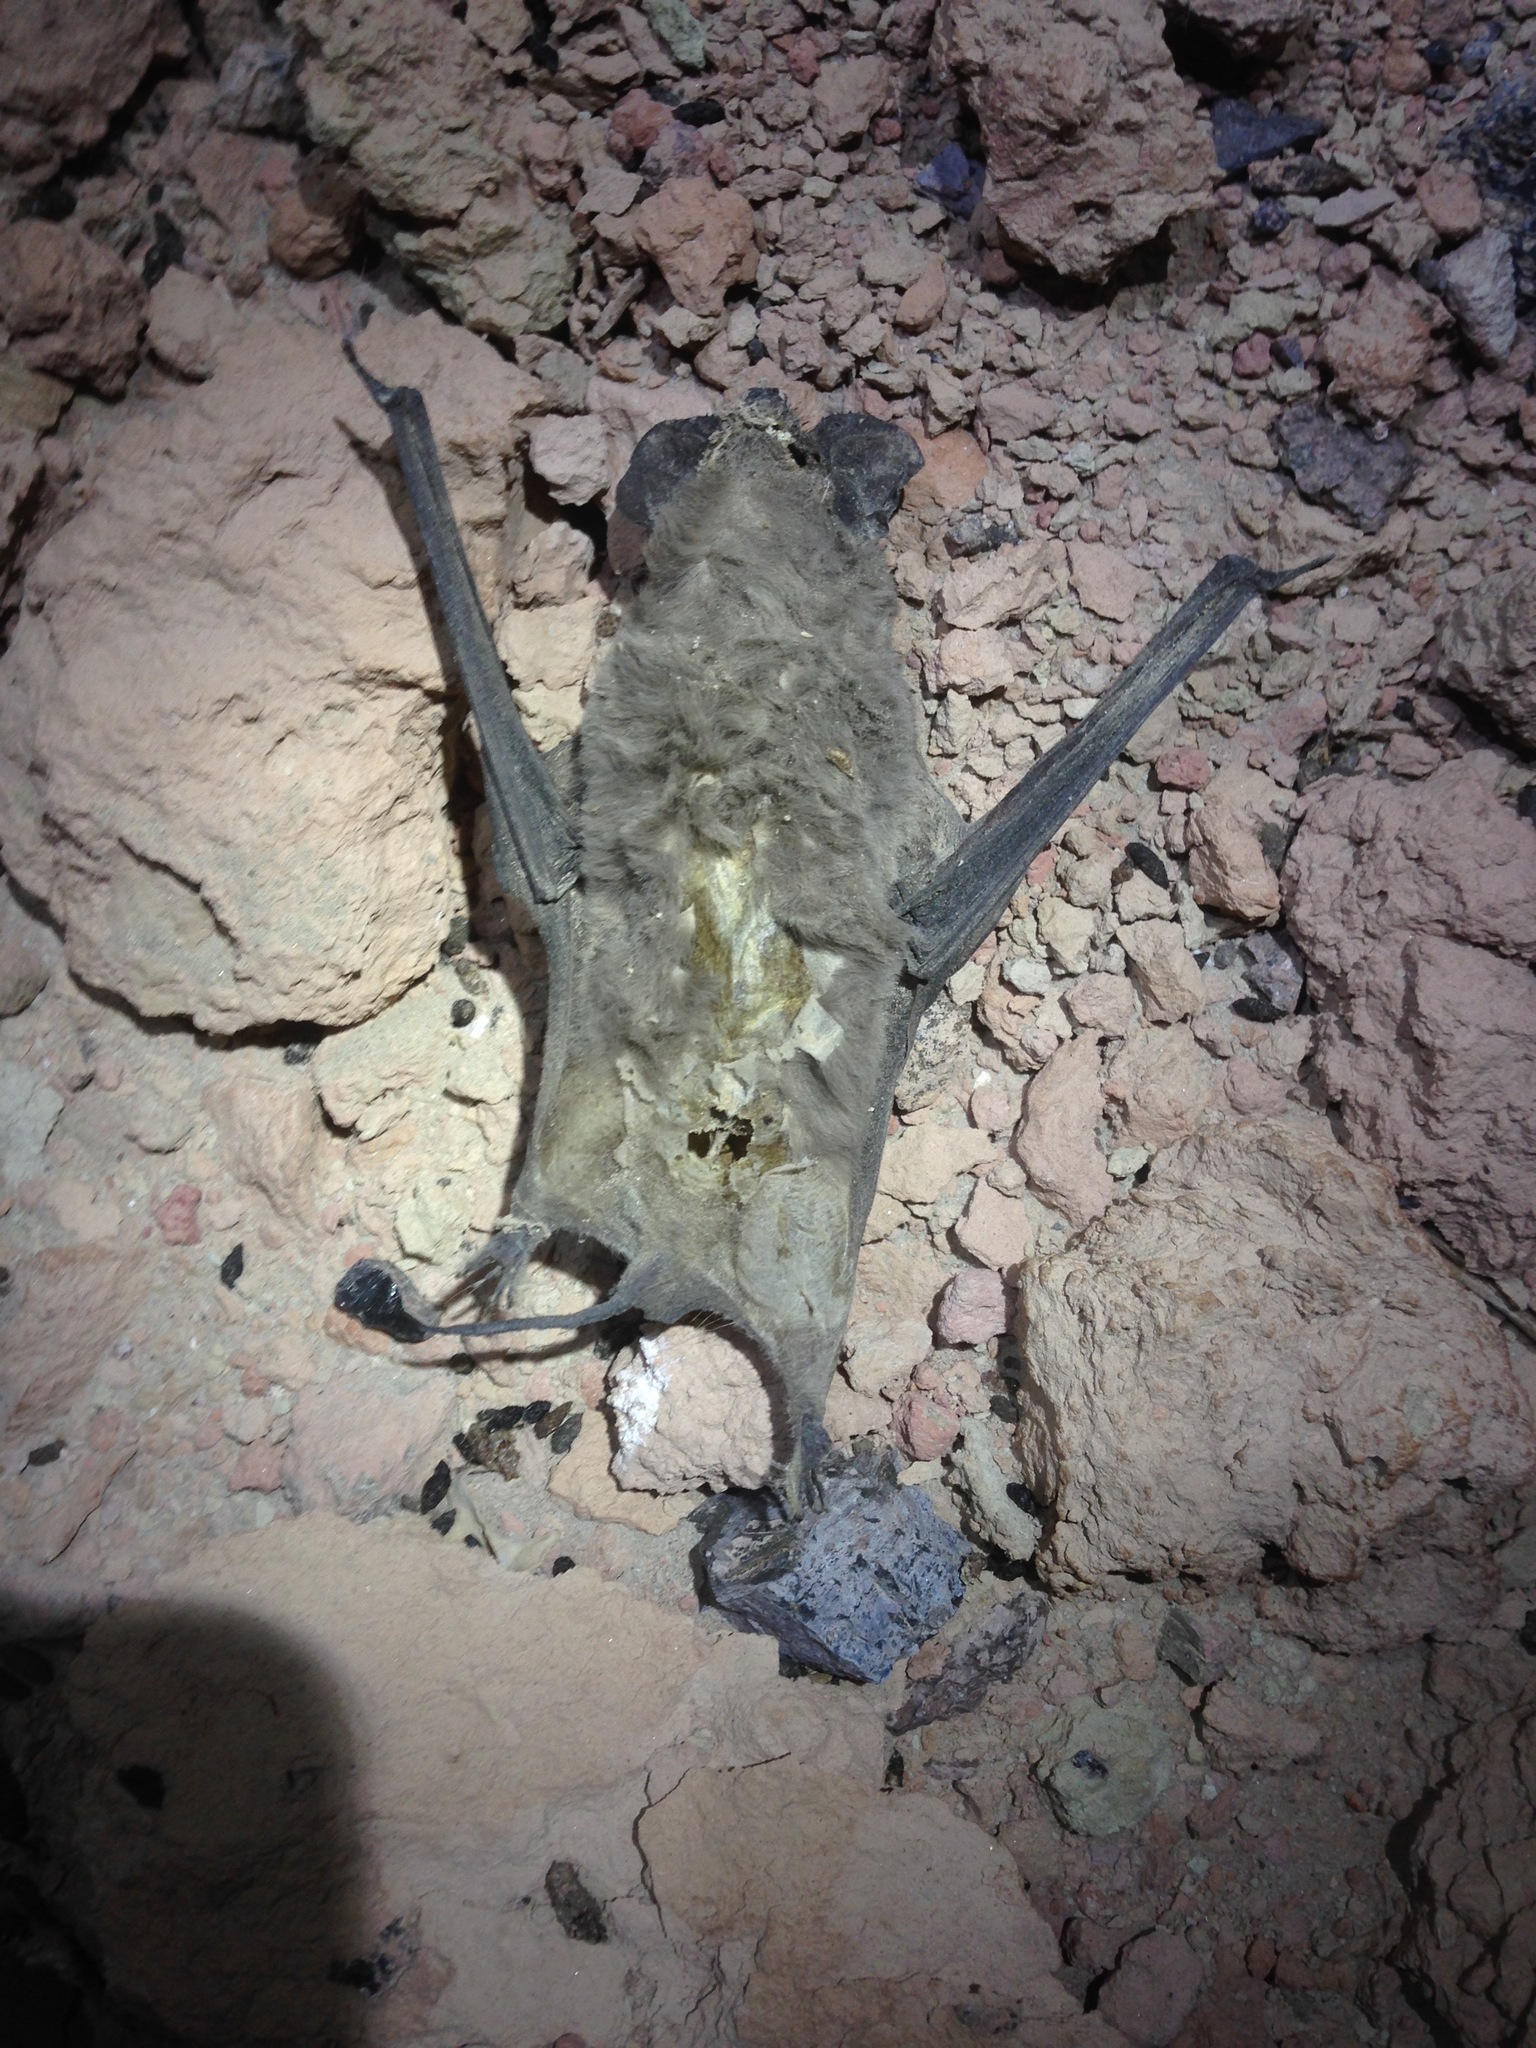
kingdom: Animalia
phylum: Chordata
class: Mammalia
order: Chiroptera
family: Molossidae
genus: Tadarida
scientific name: Tadarida brasiliensis
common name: Mexican free-tailed bat
